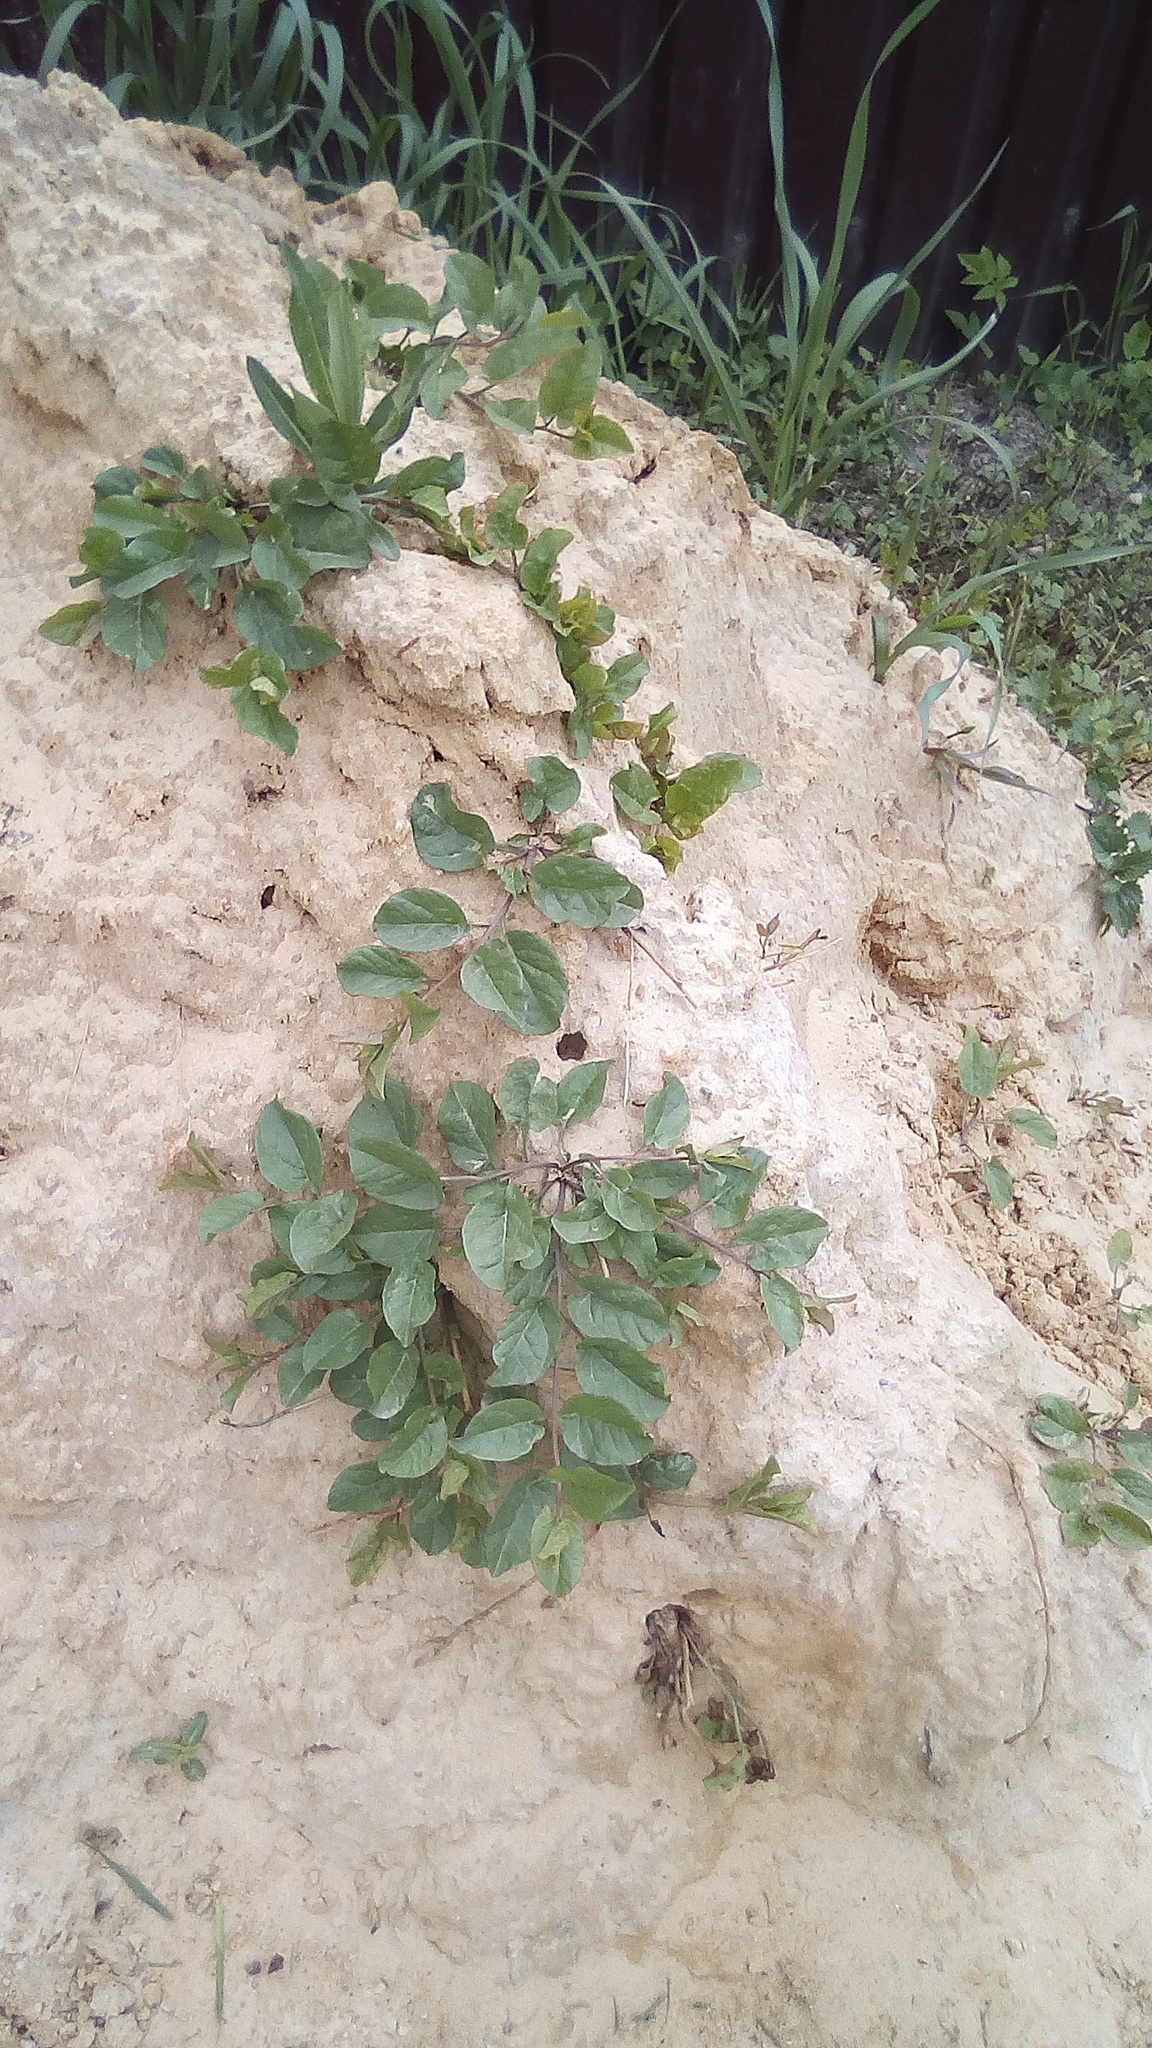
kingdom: Plantae
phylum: Tracheophyta
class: Magnoliopsida
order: Solanales
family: Convolvulaceae
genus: Convolvulus
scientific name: Convolvulus arvensis
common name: Field bindweed
